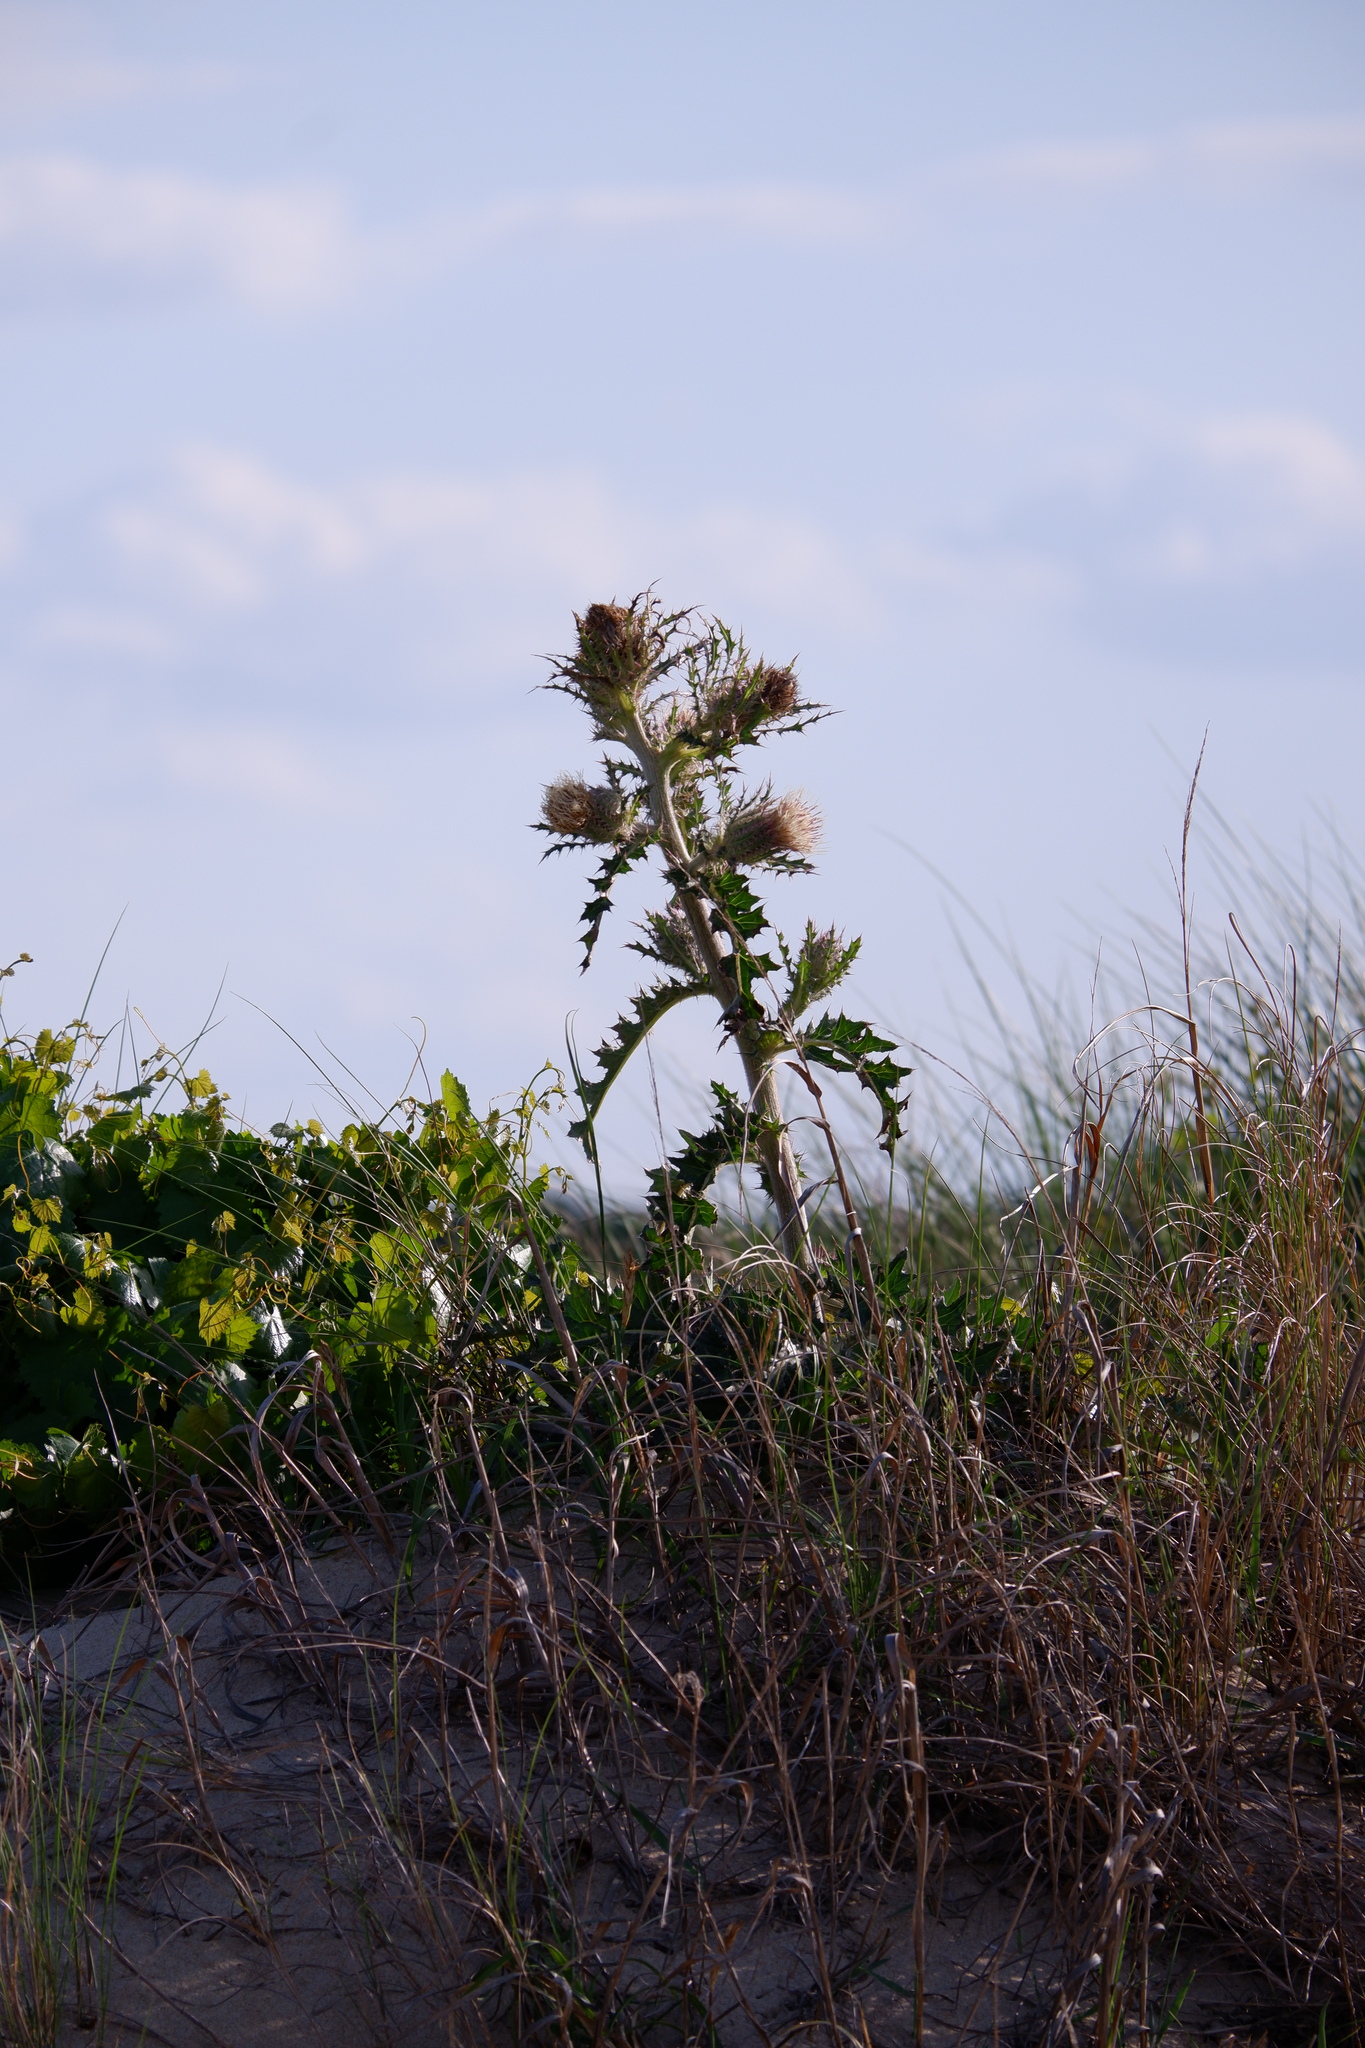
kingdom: Plantae
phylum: Tracheophyta
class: Magnoliopsida
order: Asterales
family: Asteraceae
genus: Cirsium
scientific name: Cirsium horridulum
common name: Bristly thistle
